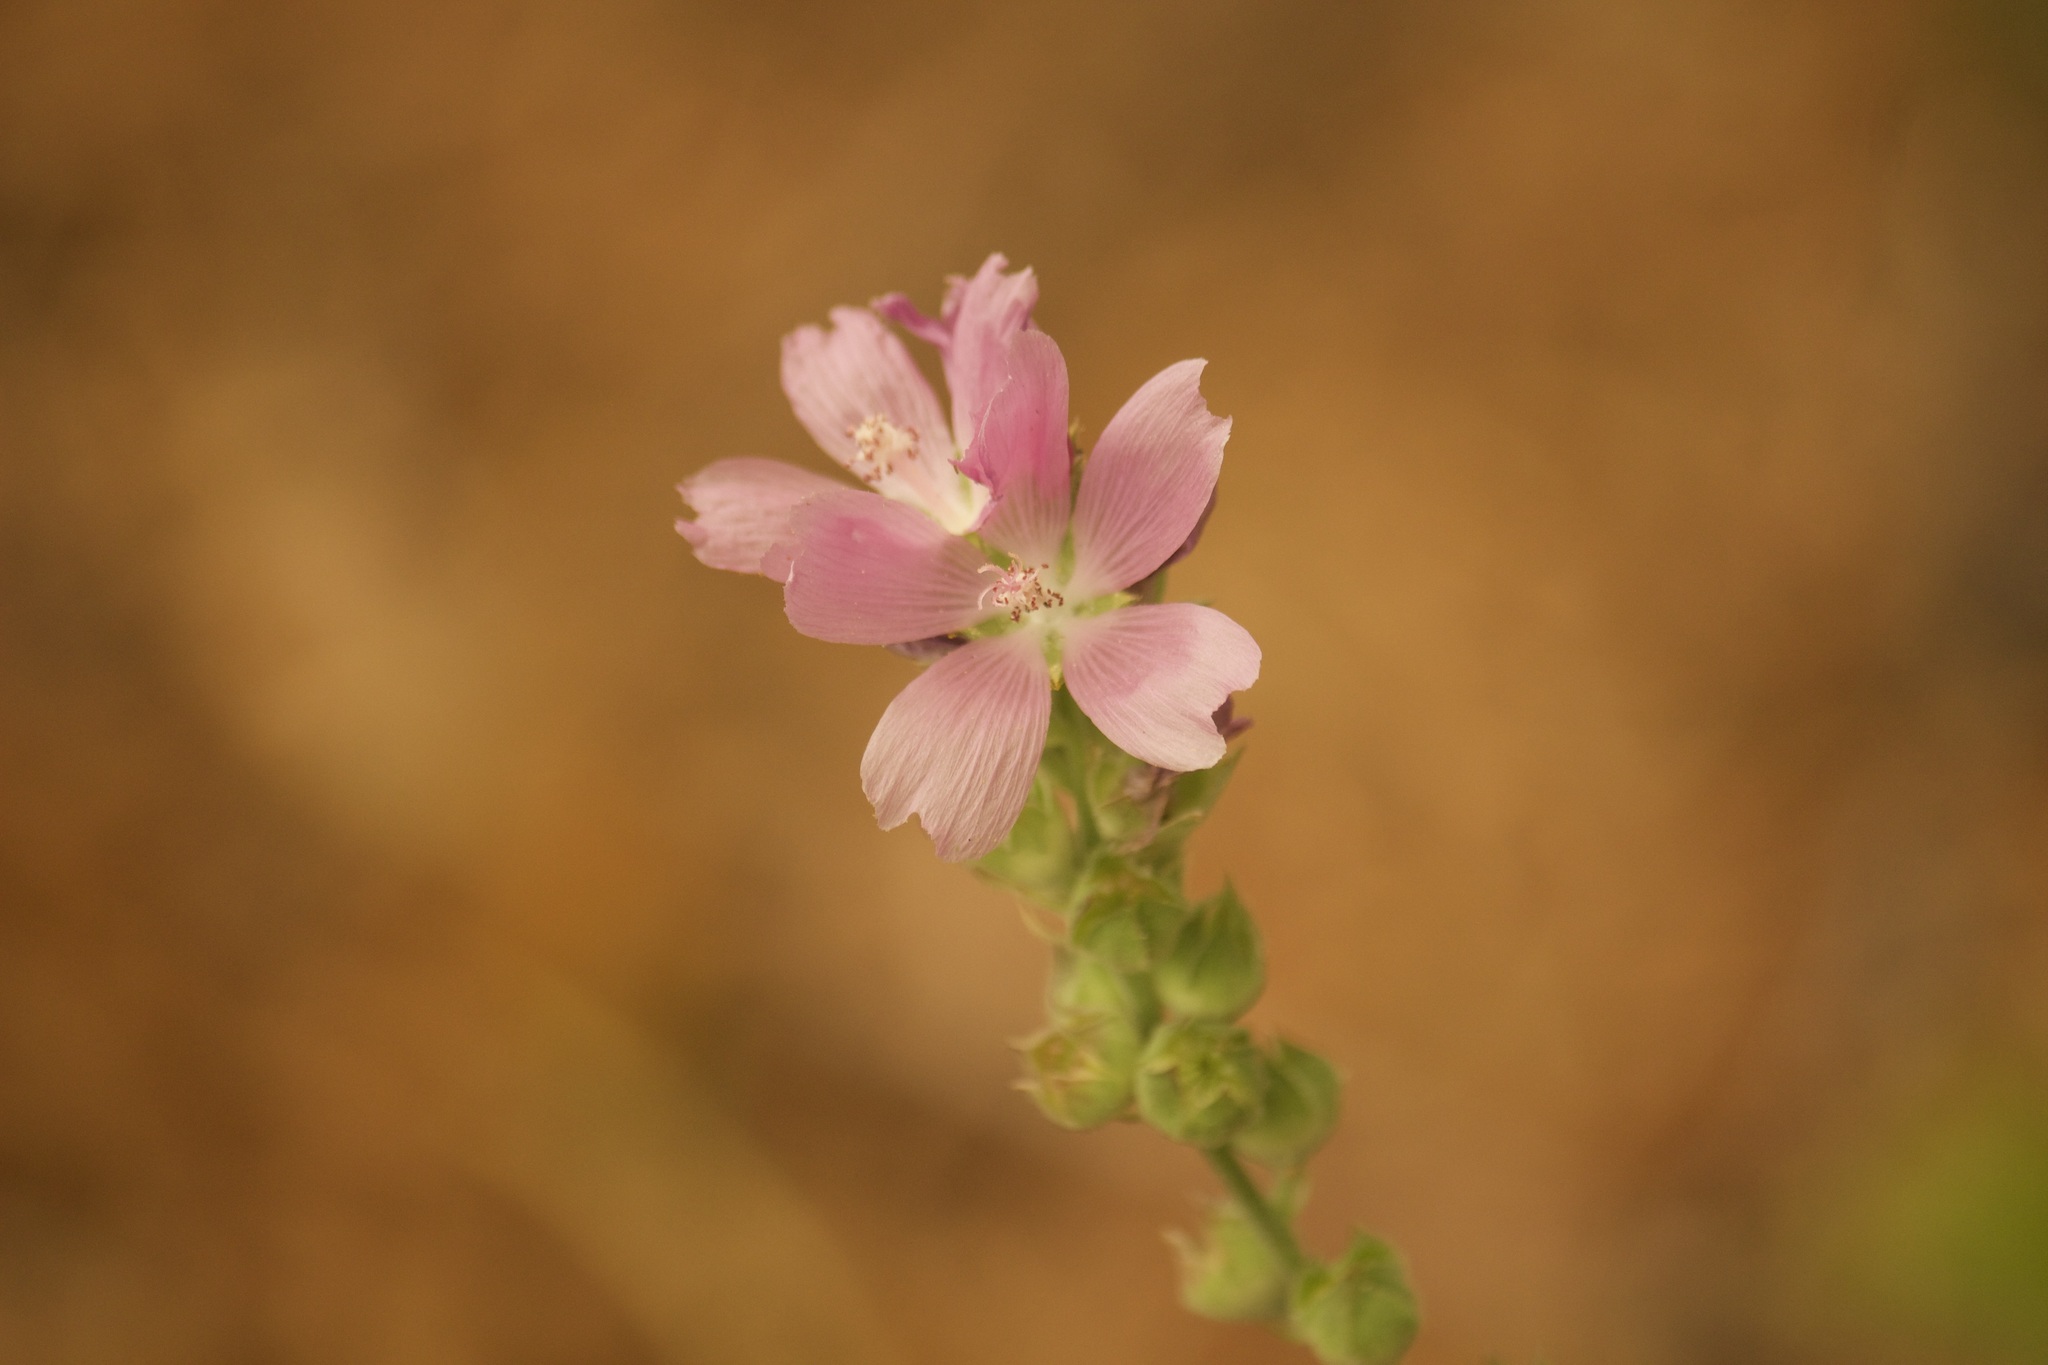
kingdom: Plantae
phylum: Tracheophyta
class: Magnoliopsida
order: Malvales
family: Malvaceae
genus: Sidalcea
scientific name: Sidalcea oregana
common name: Oregon checker-mallow
